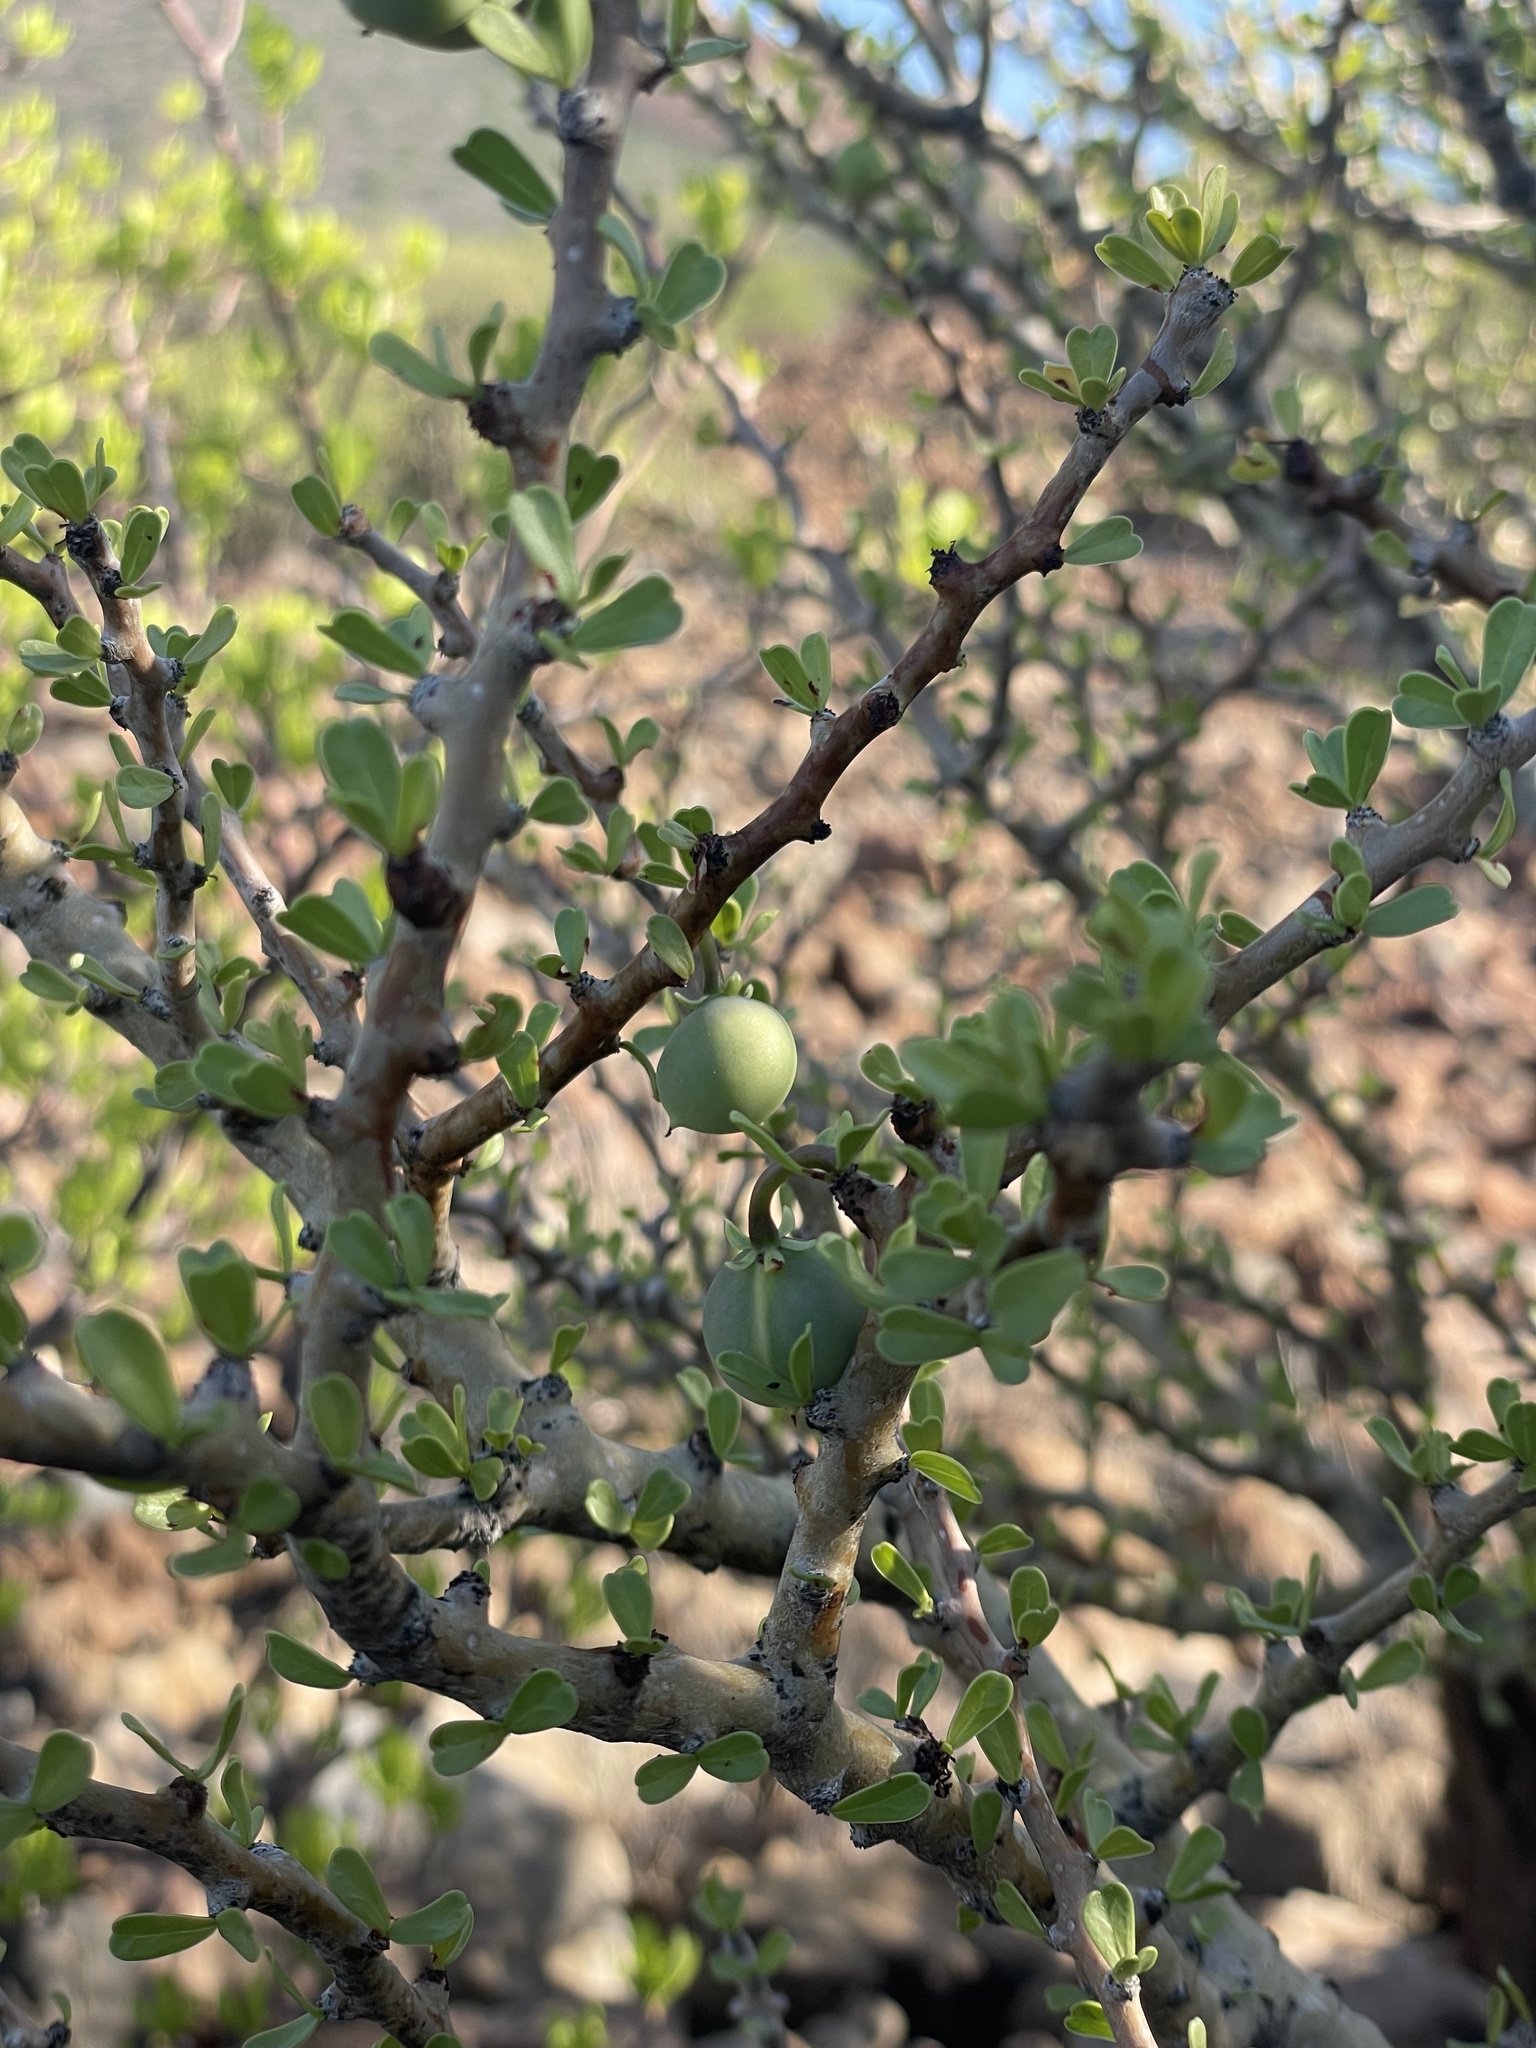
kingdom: Plantae
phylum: Tracheophyta
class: Magnoliopsida
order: Malpighiales
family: Euphorbiaceae
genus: Jatropha
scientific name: Jatropha cuneata
